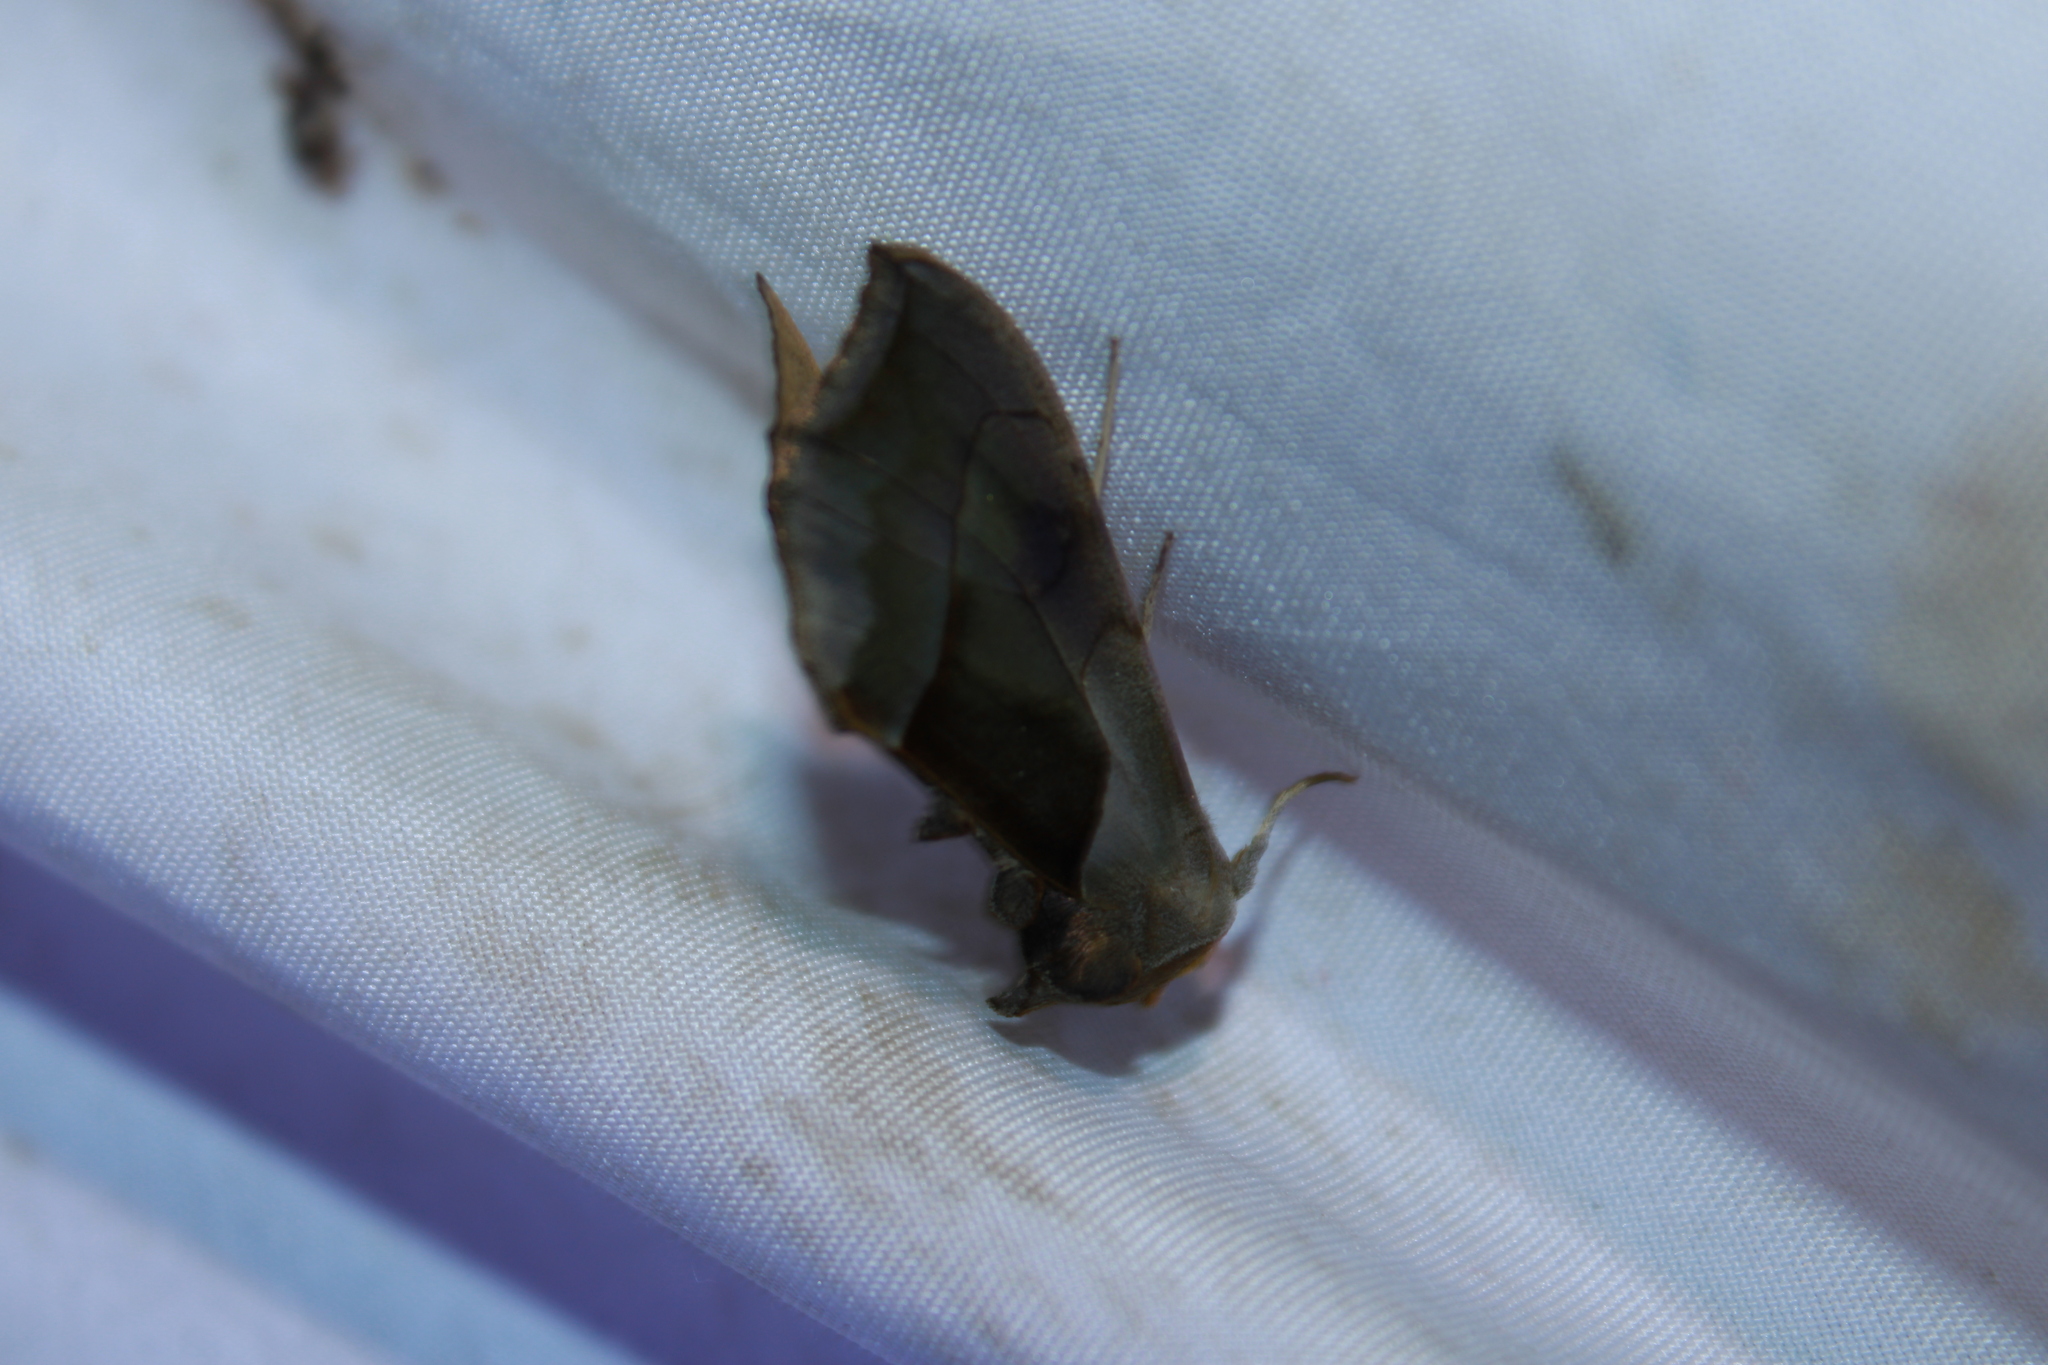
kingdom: Animalia
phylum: Arthropoda
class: Insecta
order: Lepidoptera
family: Noctuidae
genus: Diachrysia
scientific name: Diachrysia balluca
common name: Green-patched looper moth
